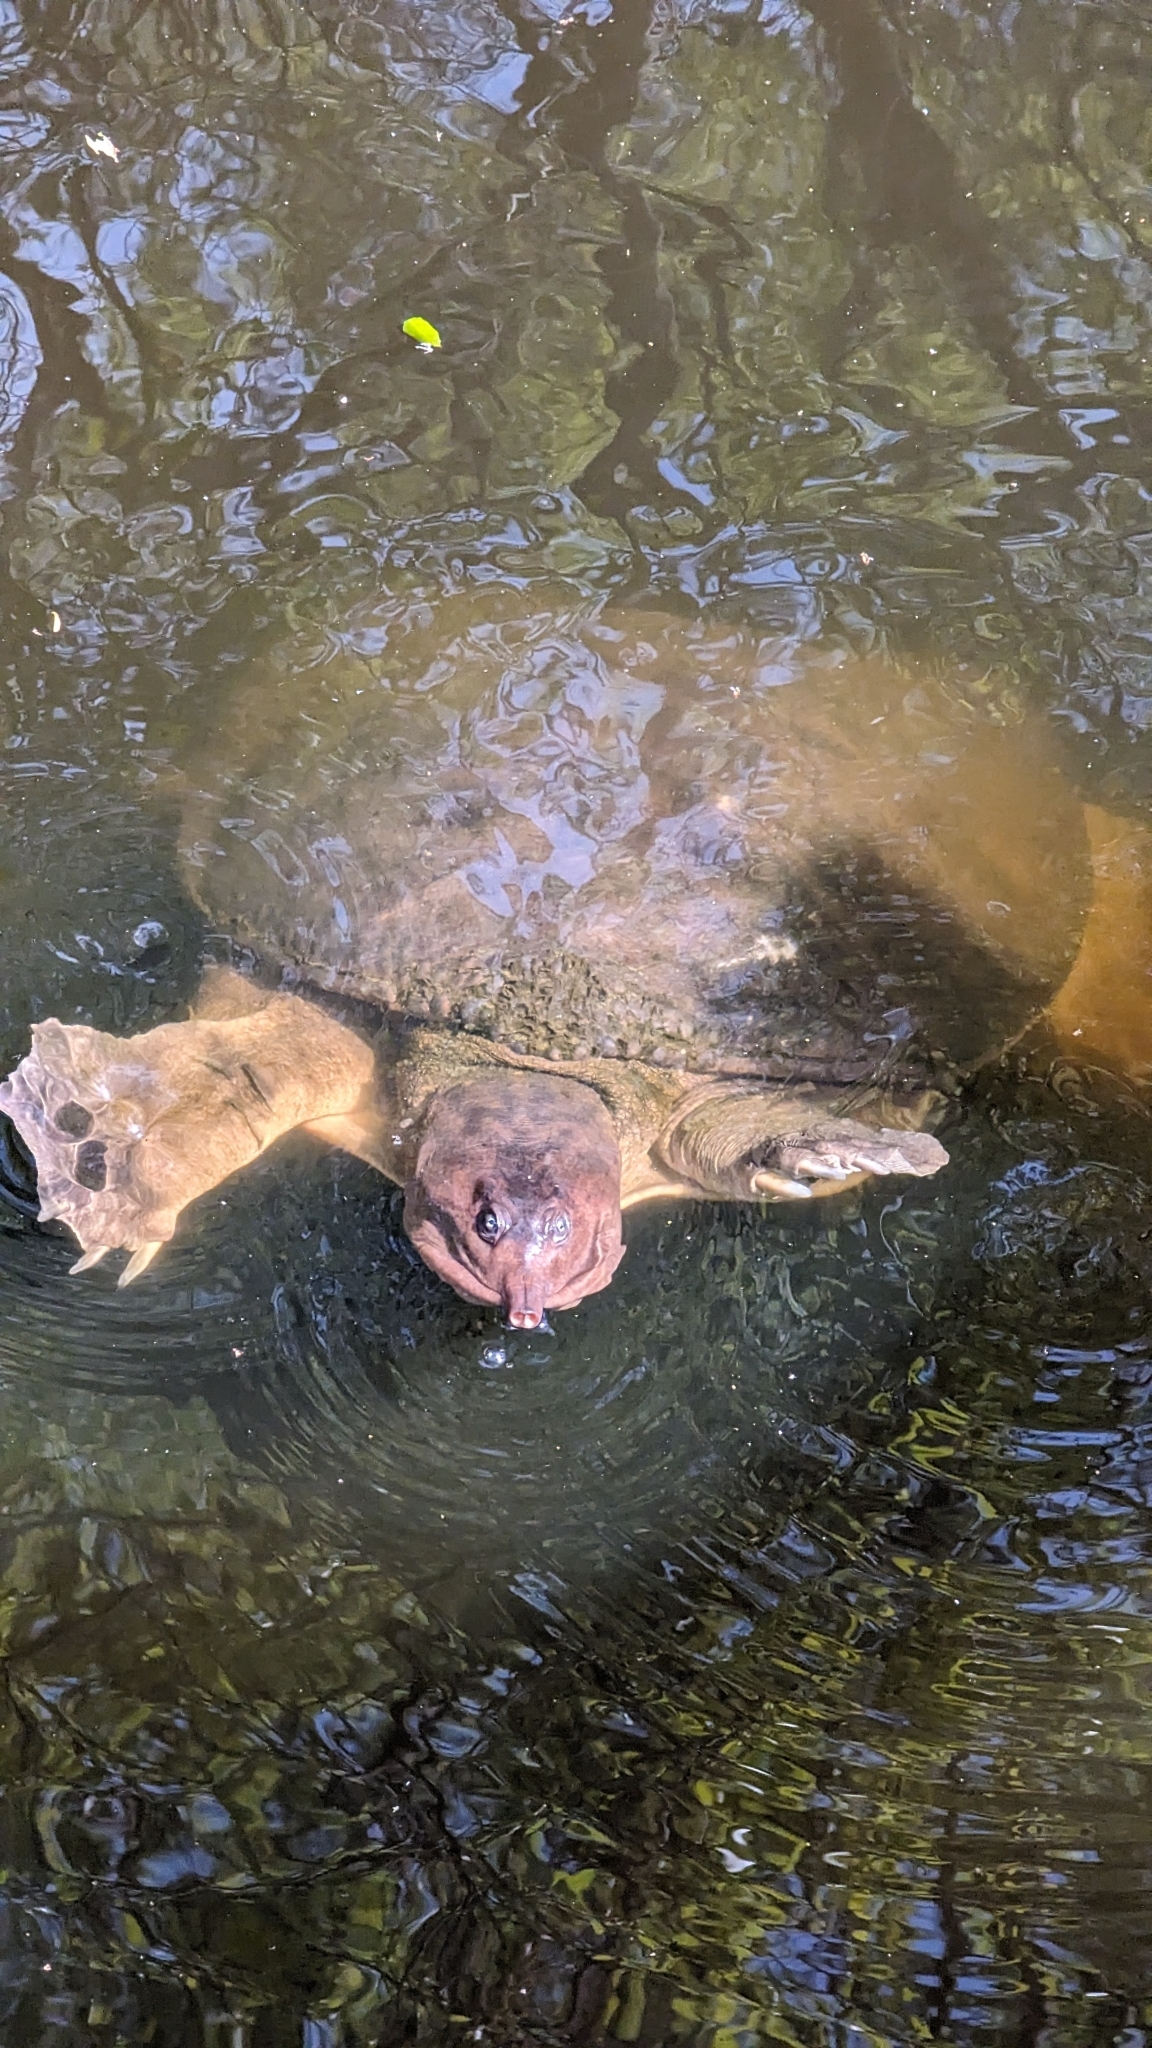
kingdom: Animalia
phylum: Chordata
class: Testudines
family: Trionychidae
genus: Apalone
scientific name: Apalone ferox
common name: Florida softshell turtle
